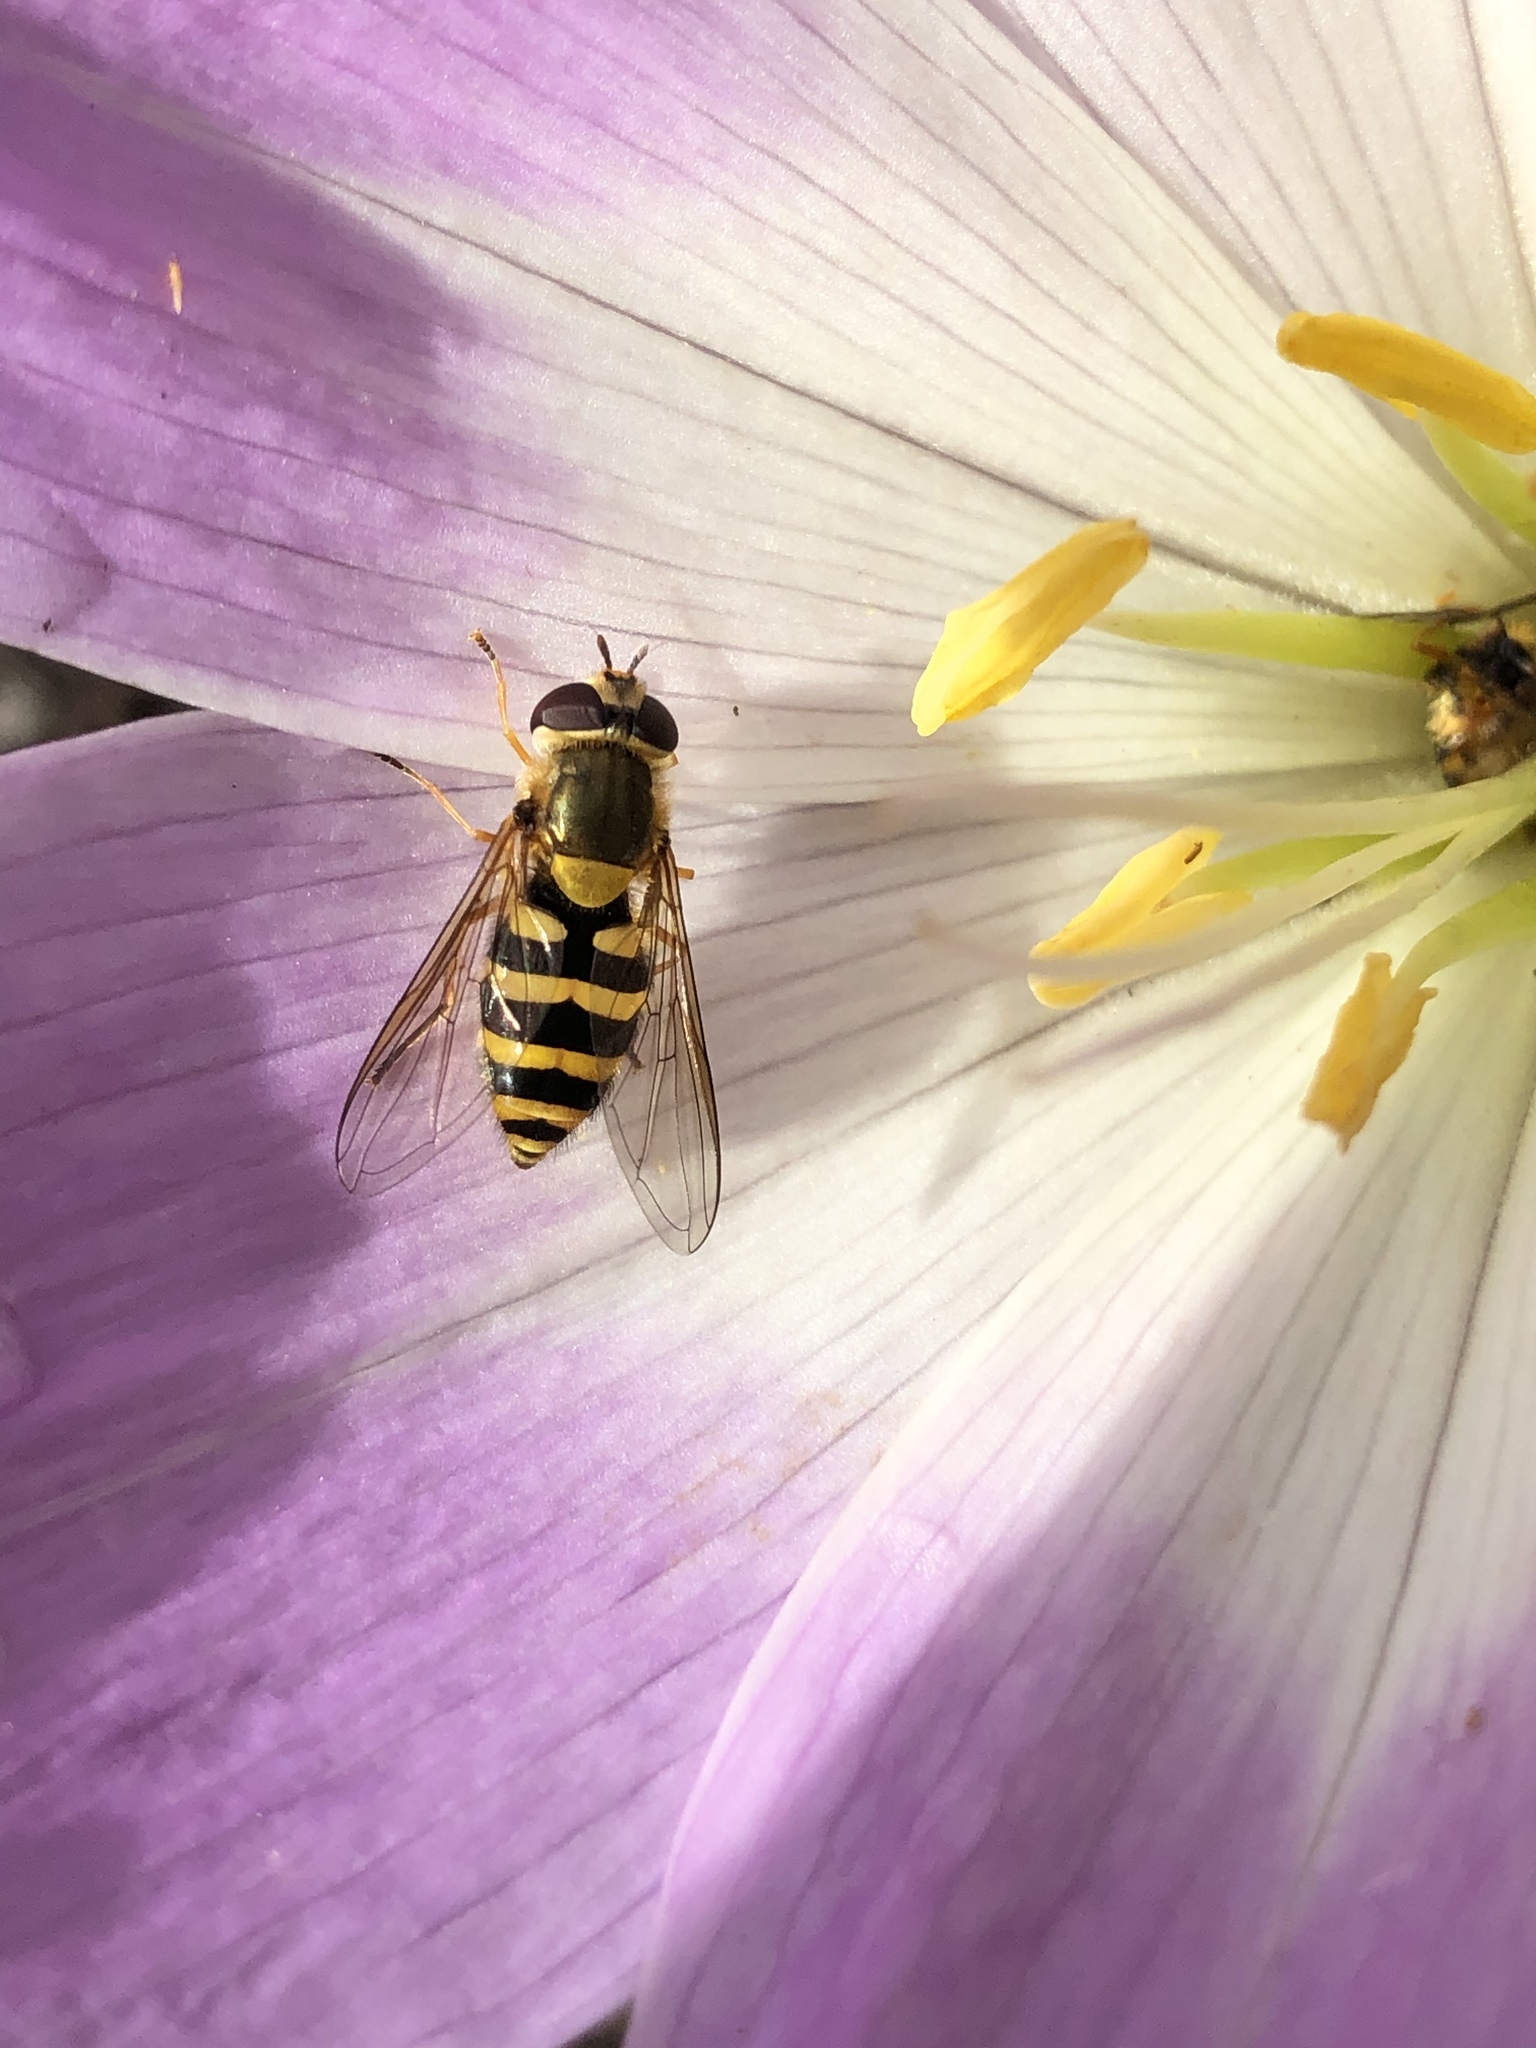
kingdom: Animalia
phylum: Arthropoda
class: Insecta
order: Diptera
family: Syrphidae
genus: Syrphus
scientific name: Syrphus
